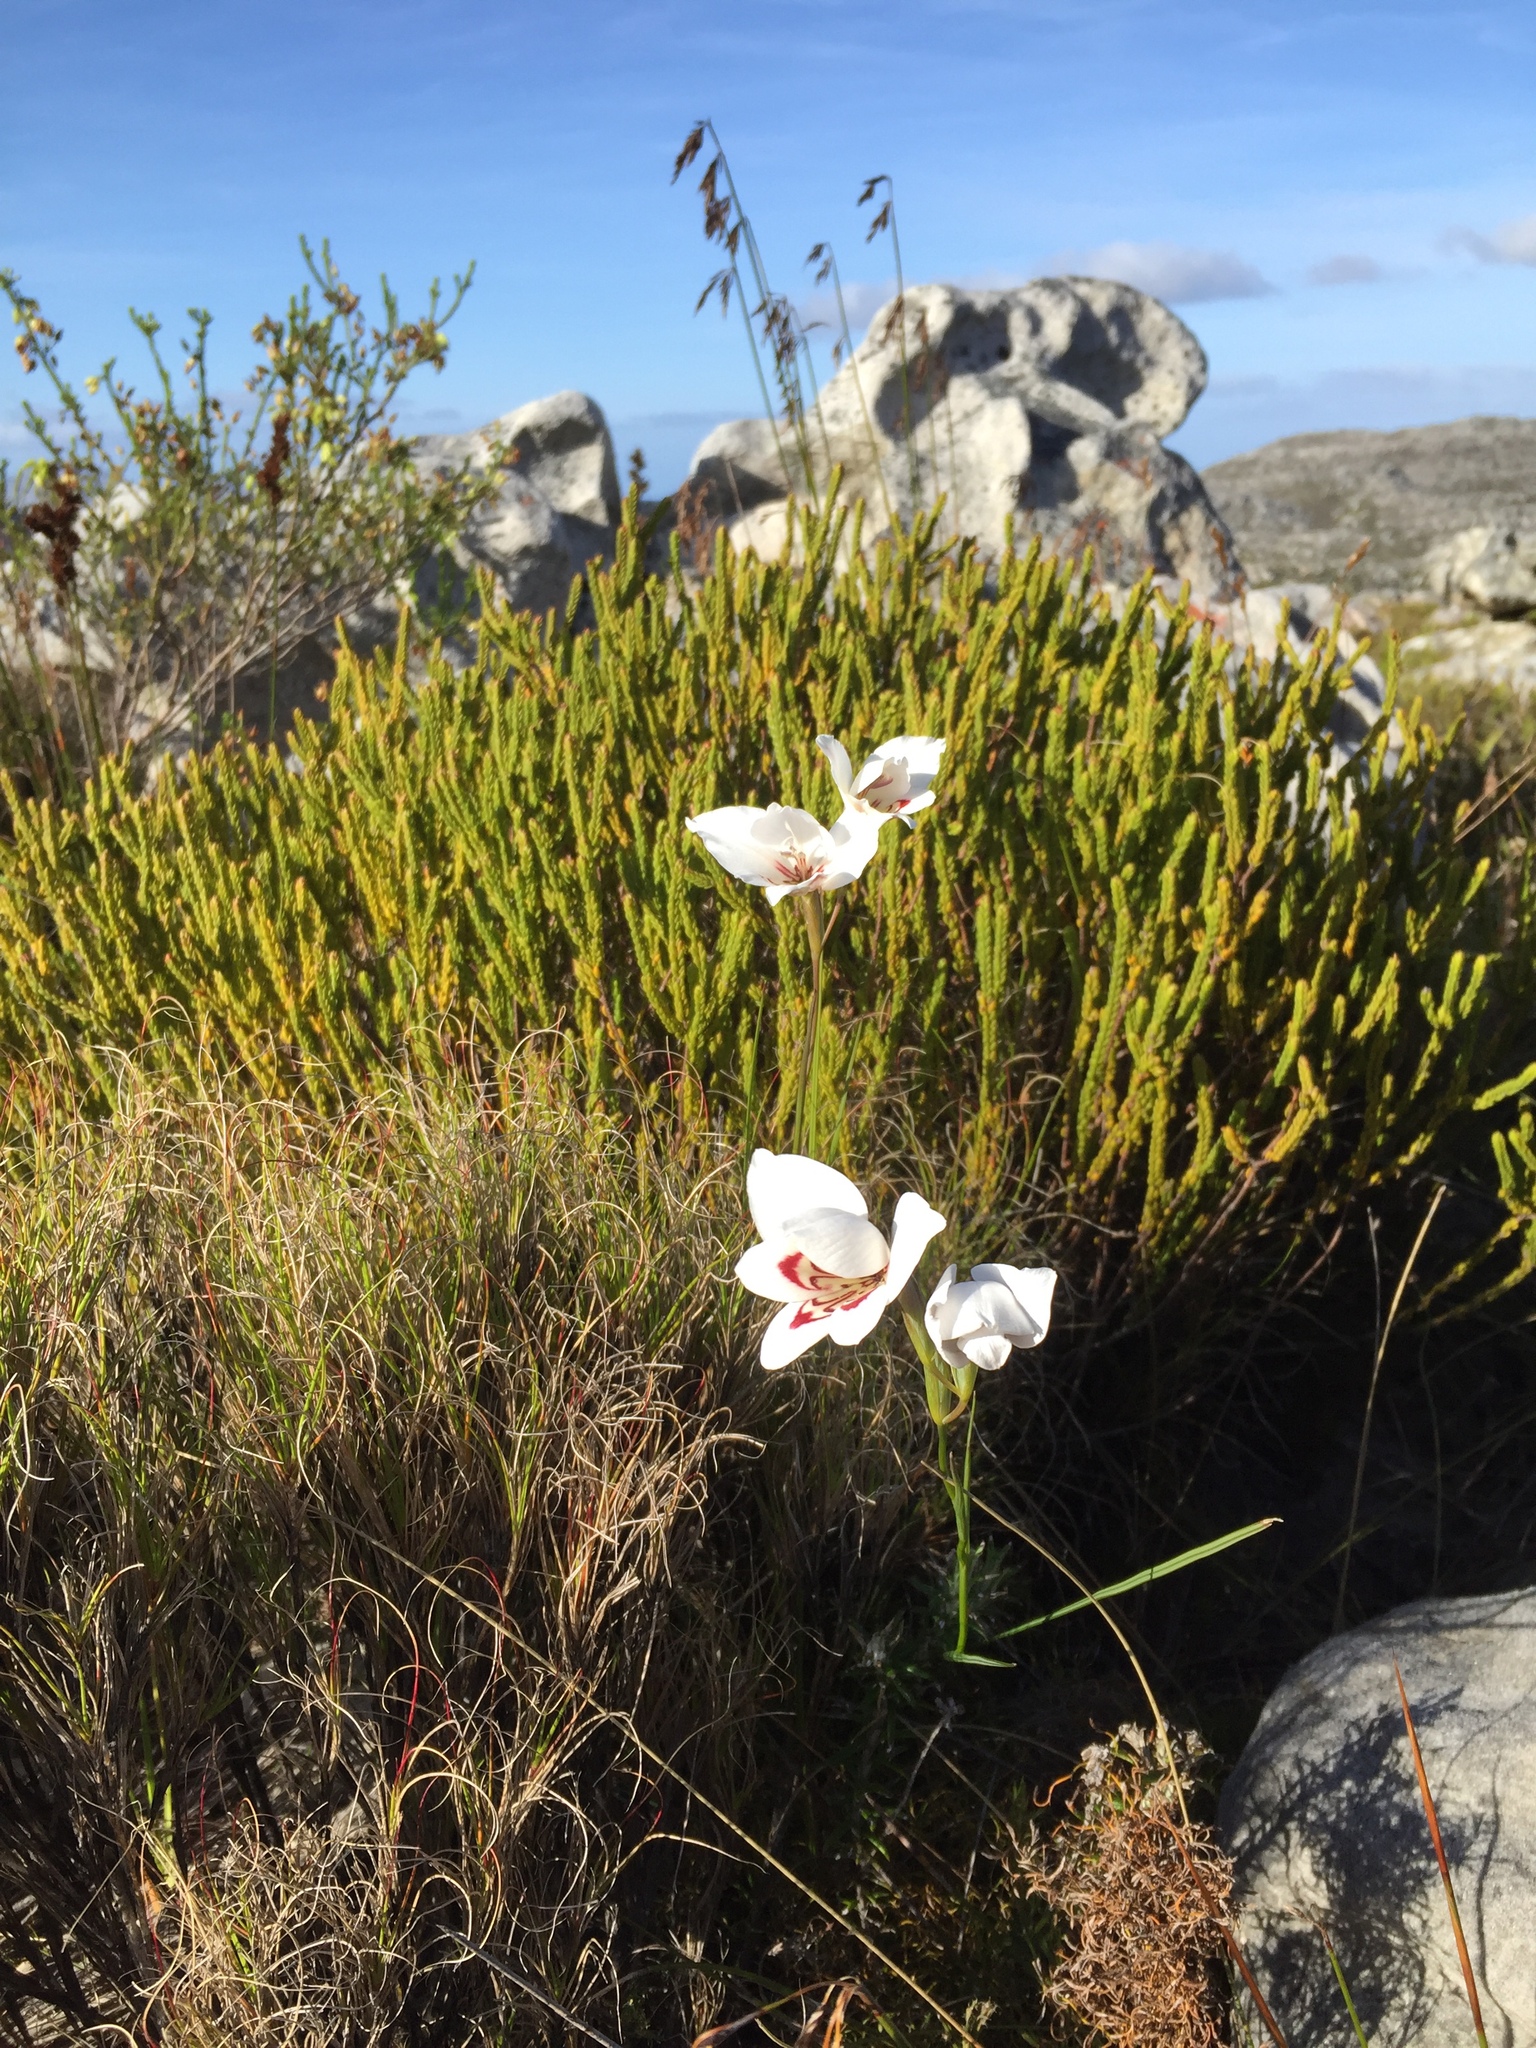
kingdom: Plantae
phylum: Tracheophyta
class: Liliopsida
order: Asparagales
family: Iridaceae
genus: Gladiolus
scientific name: Gladiolus debilis
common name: Painted-lady
